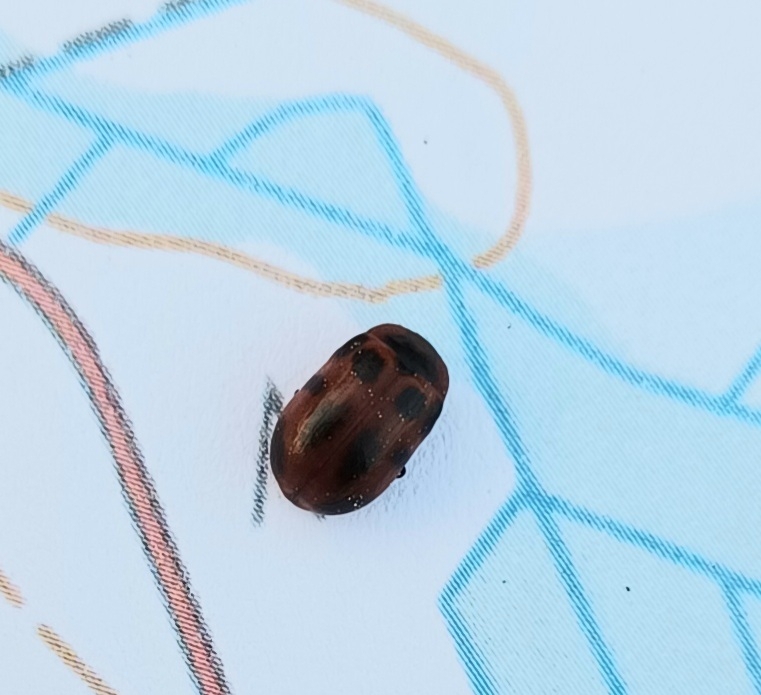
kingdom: Animalia
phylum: Arthropoda
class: Insecta
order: Coleoptera
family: Chrysomelidae
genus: Gonioctena
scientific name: Gonioctena viminalis
